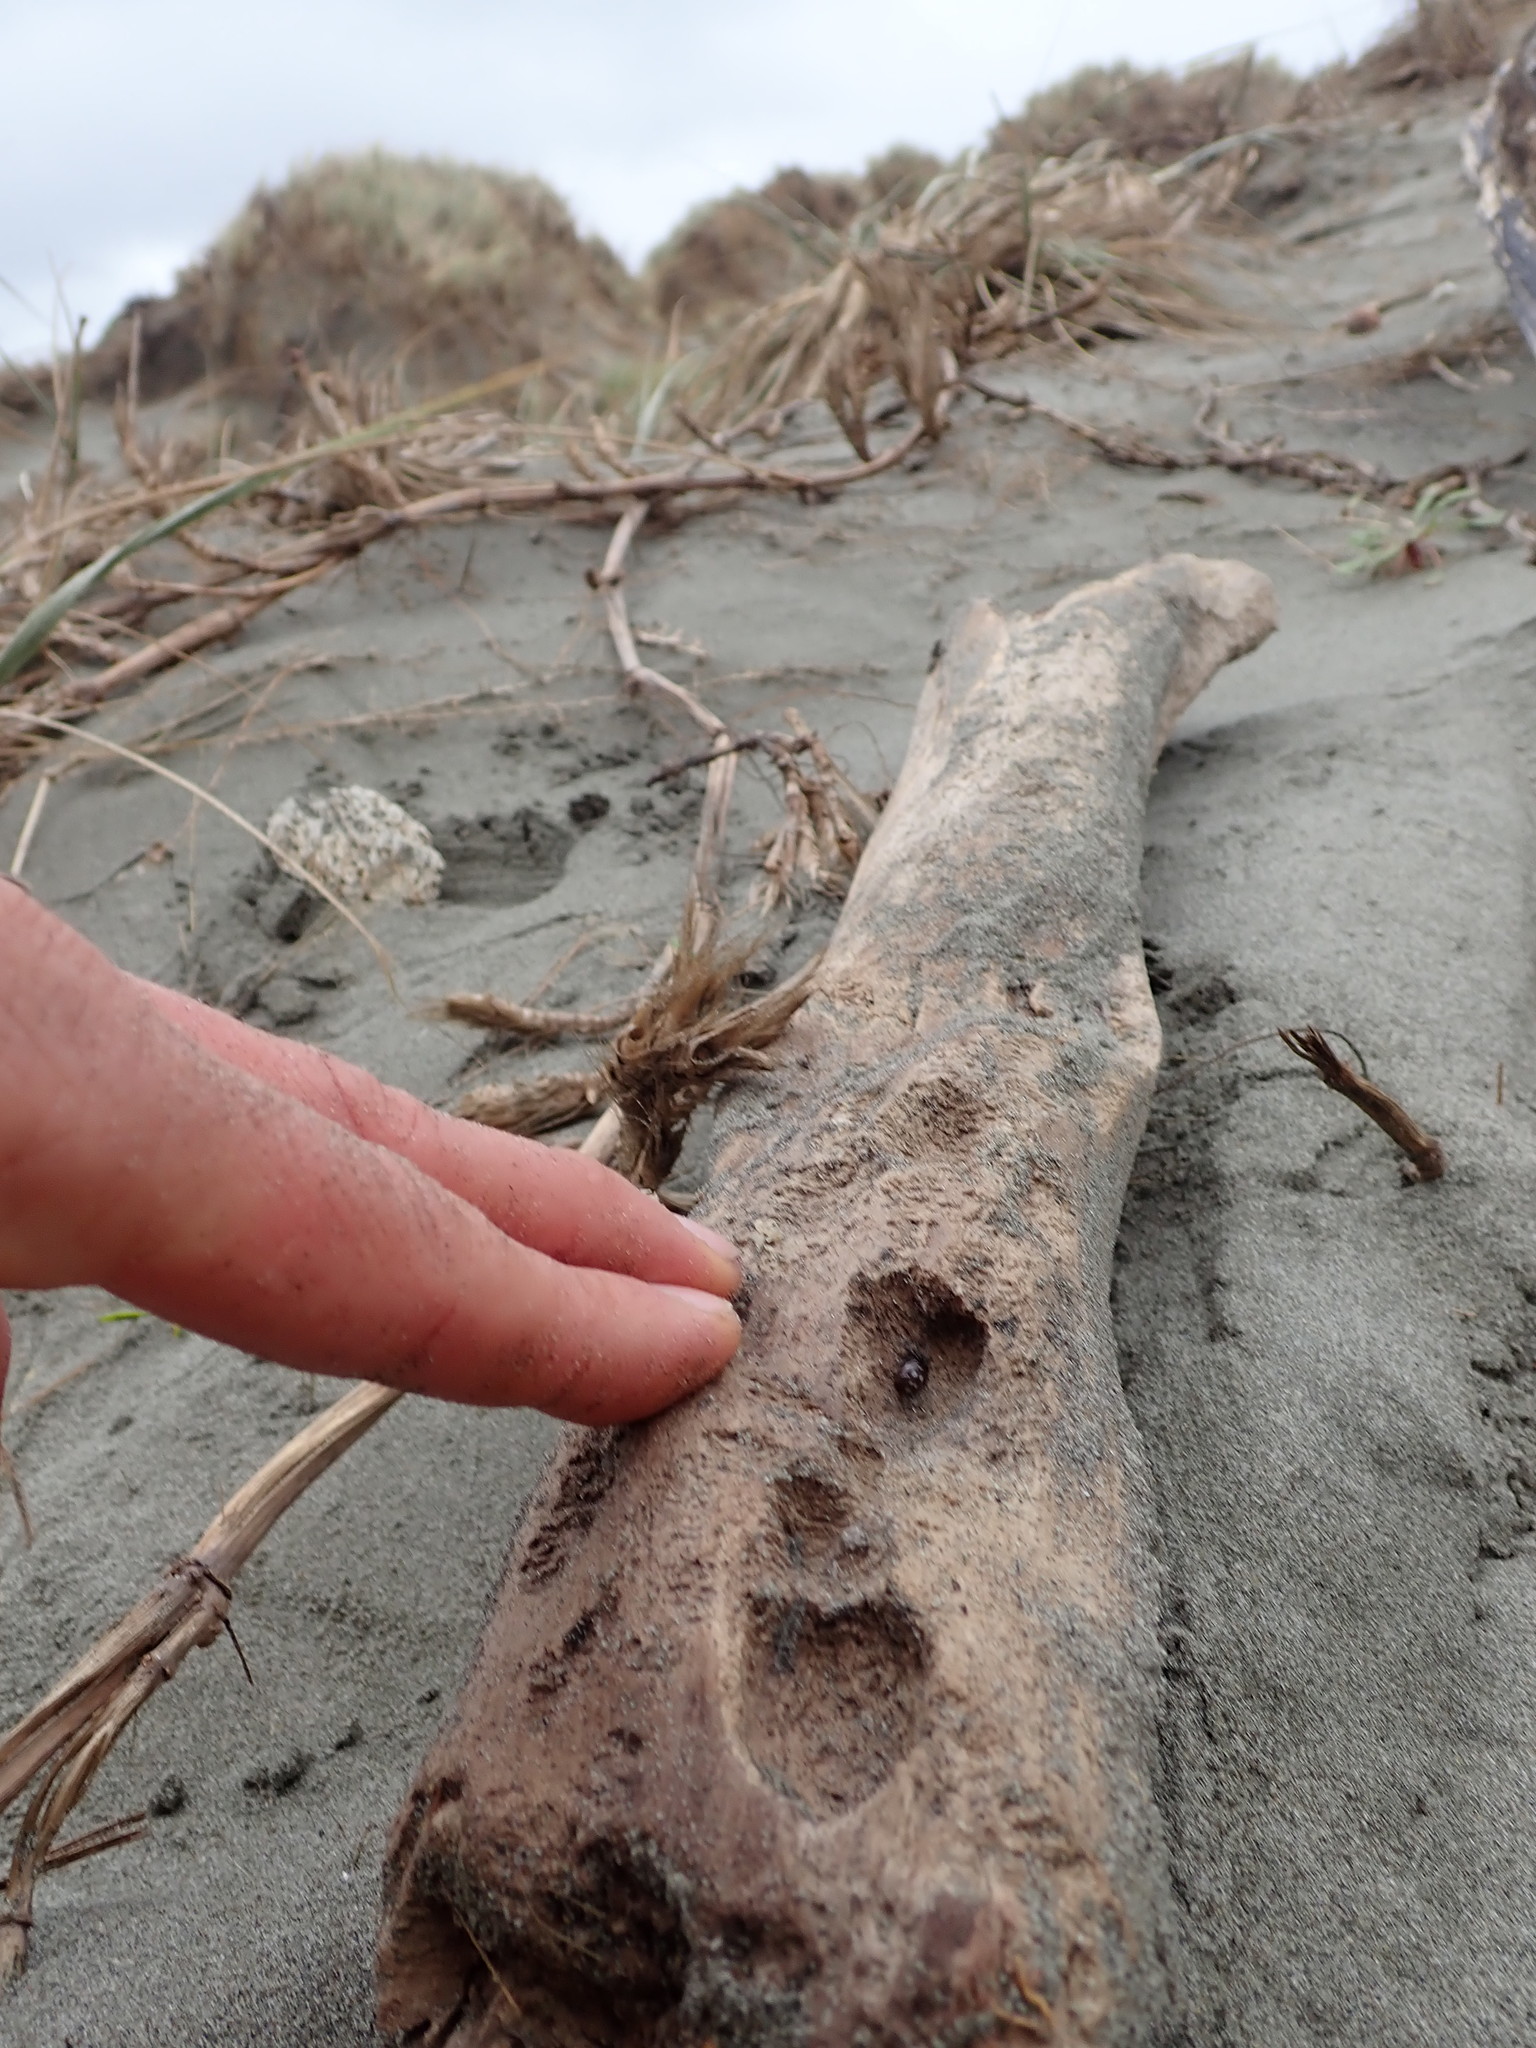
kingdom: Animalia
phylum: Arthropoda
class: Arachnida
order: Araneae
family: Theridiidae
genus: Steatoda
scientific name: Steatoda capensis
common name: Cobweb weaver
